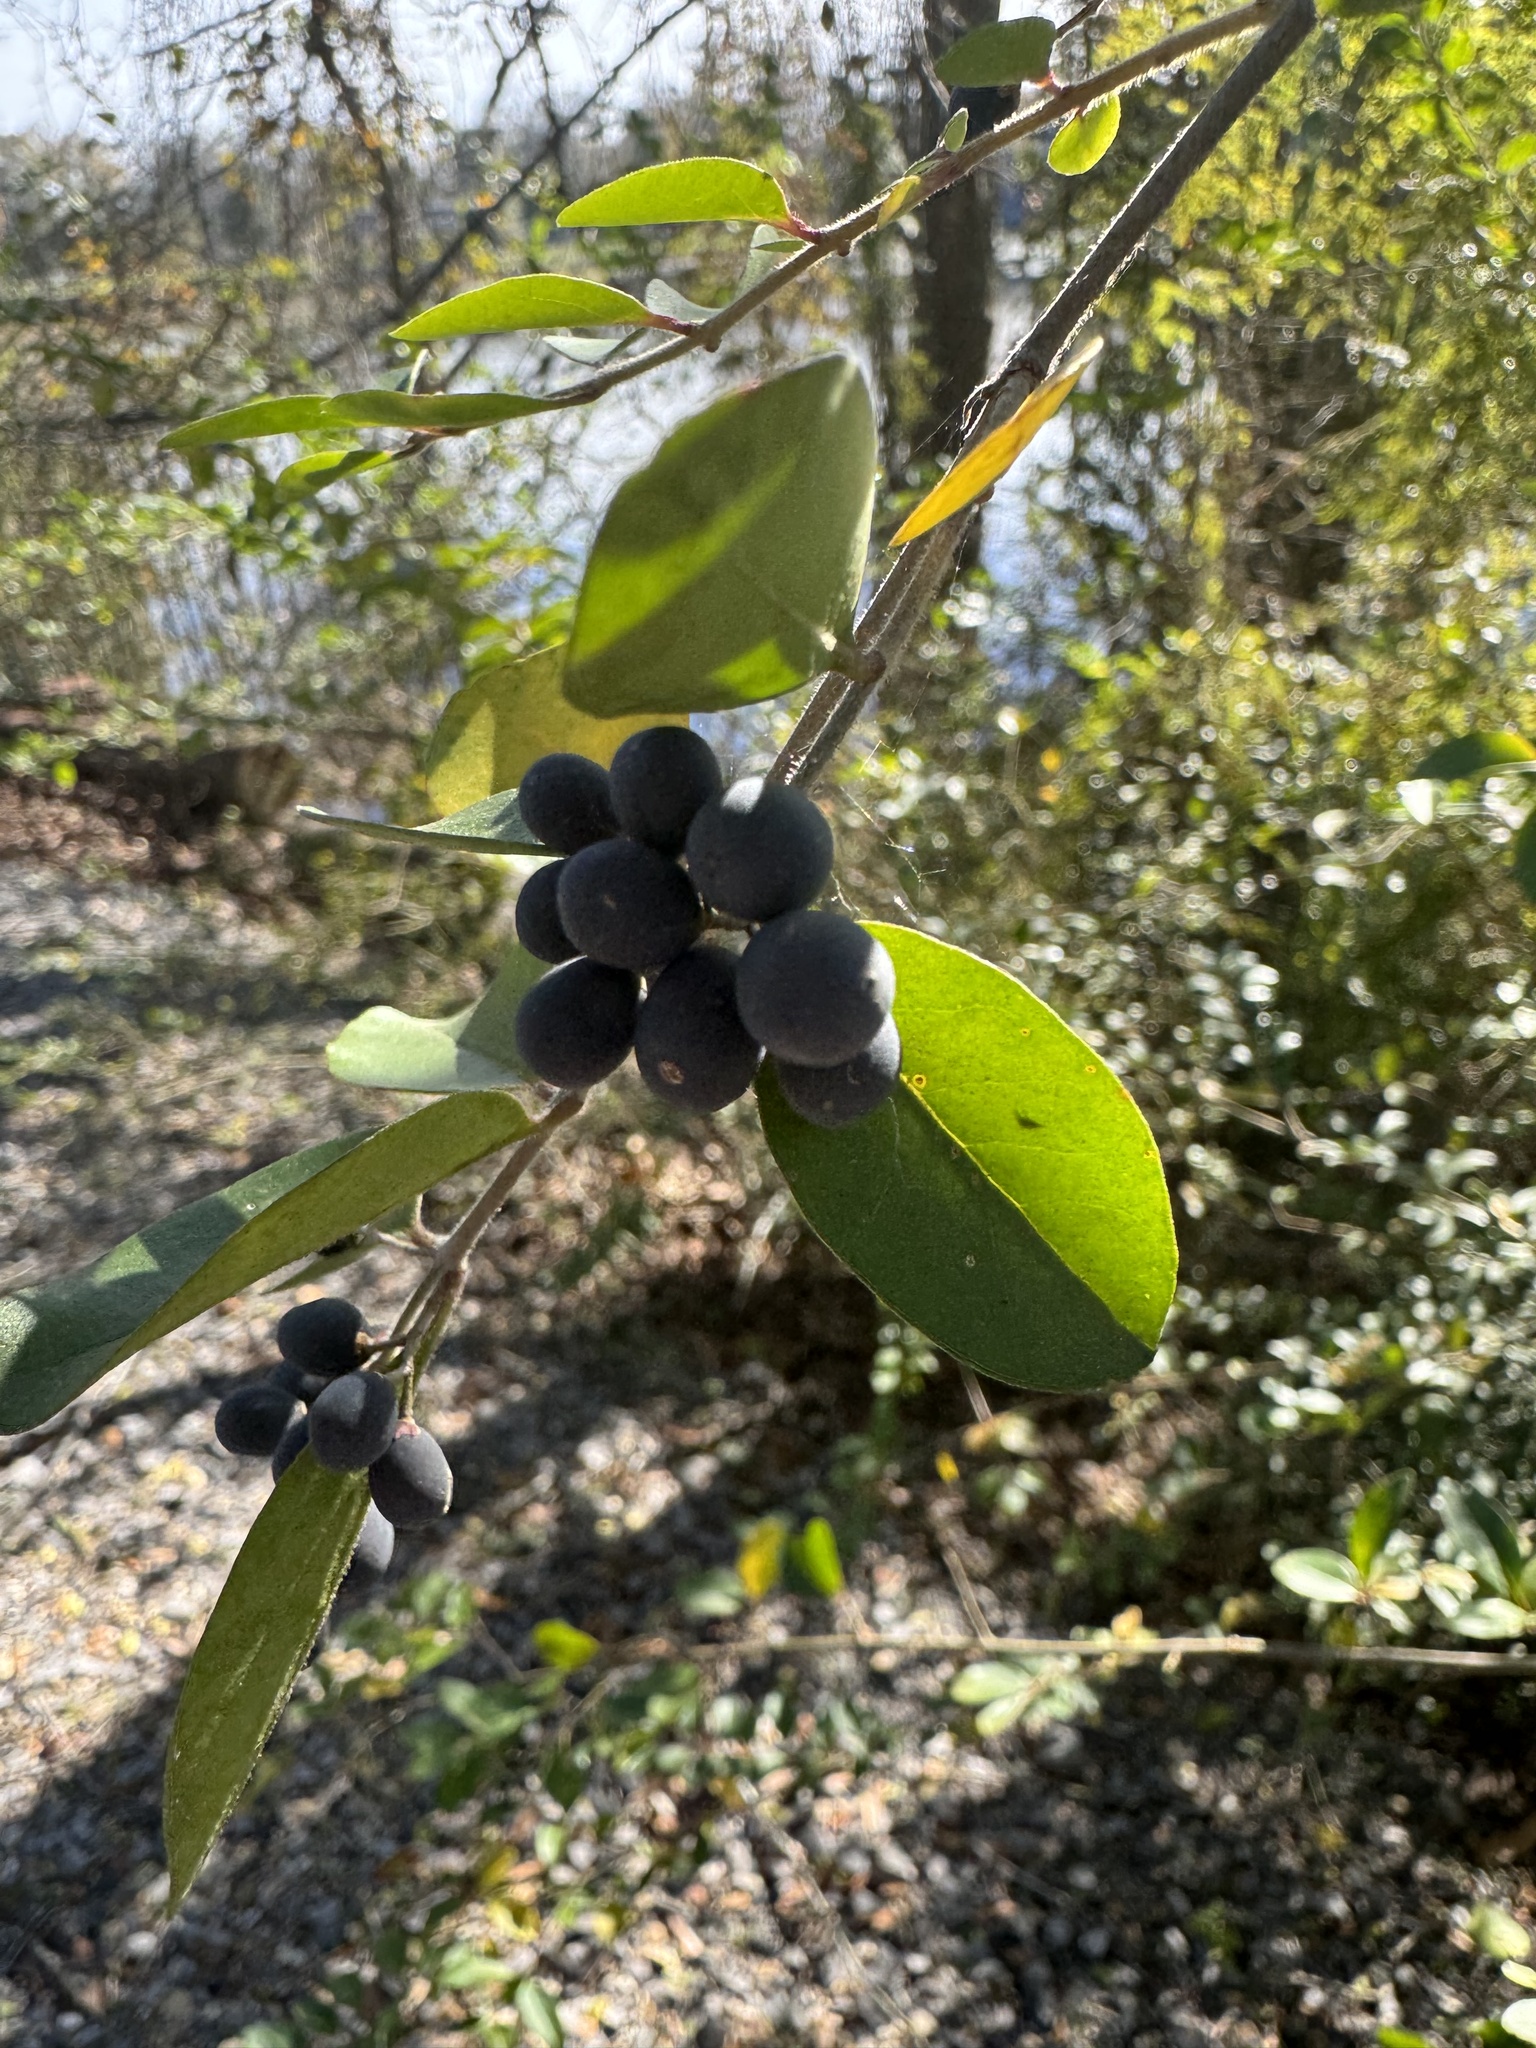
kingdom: Plantae
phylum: Tracheophyta
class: Magnoliopsida
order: Lamiales
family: Oleaceae
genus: Ligustrum
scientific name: Ligustrum sinense
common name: Chinese privet
